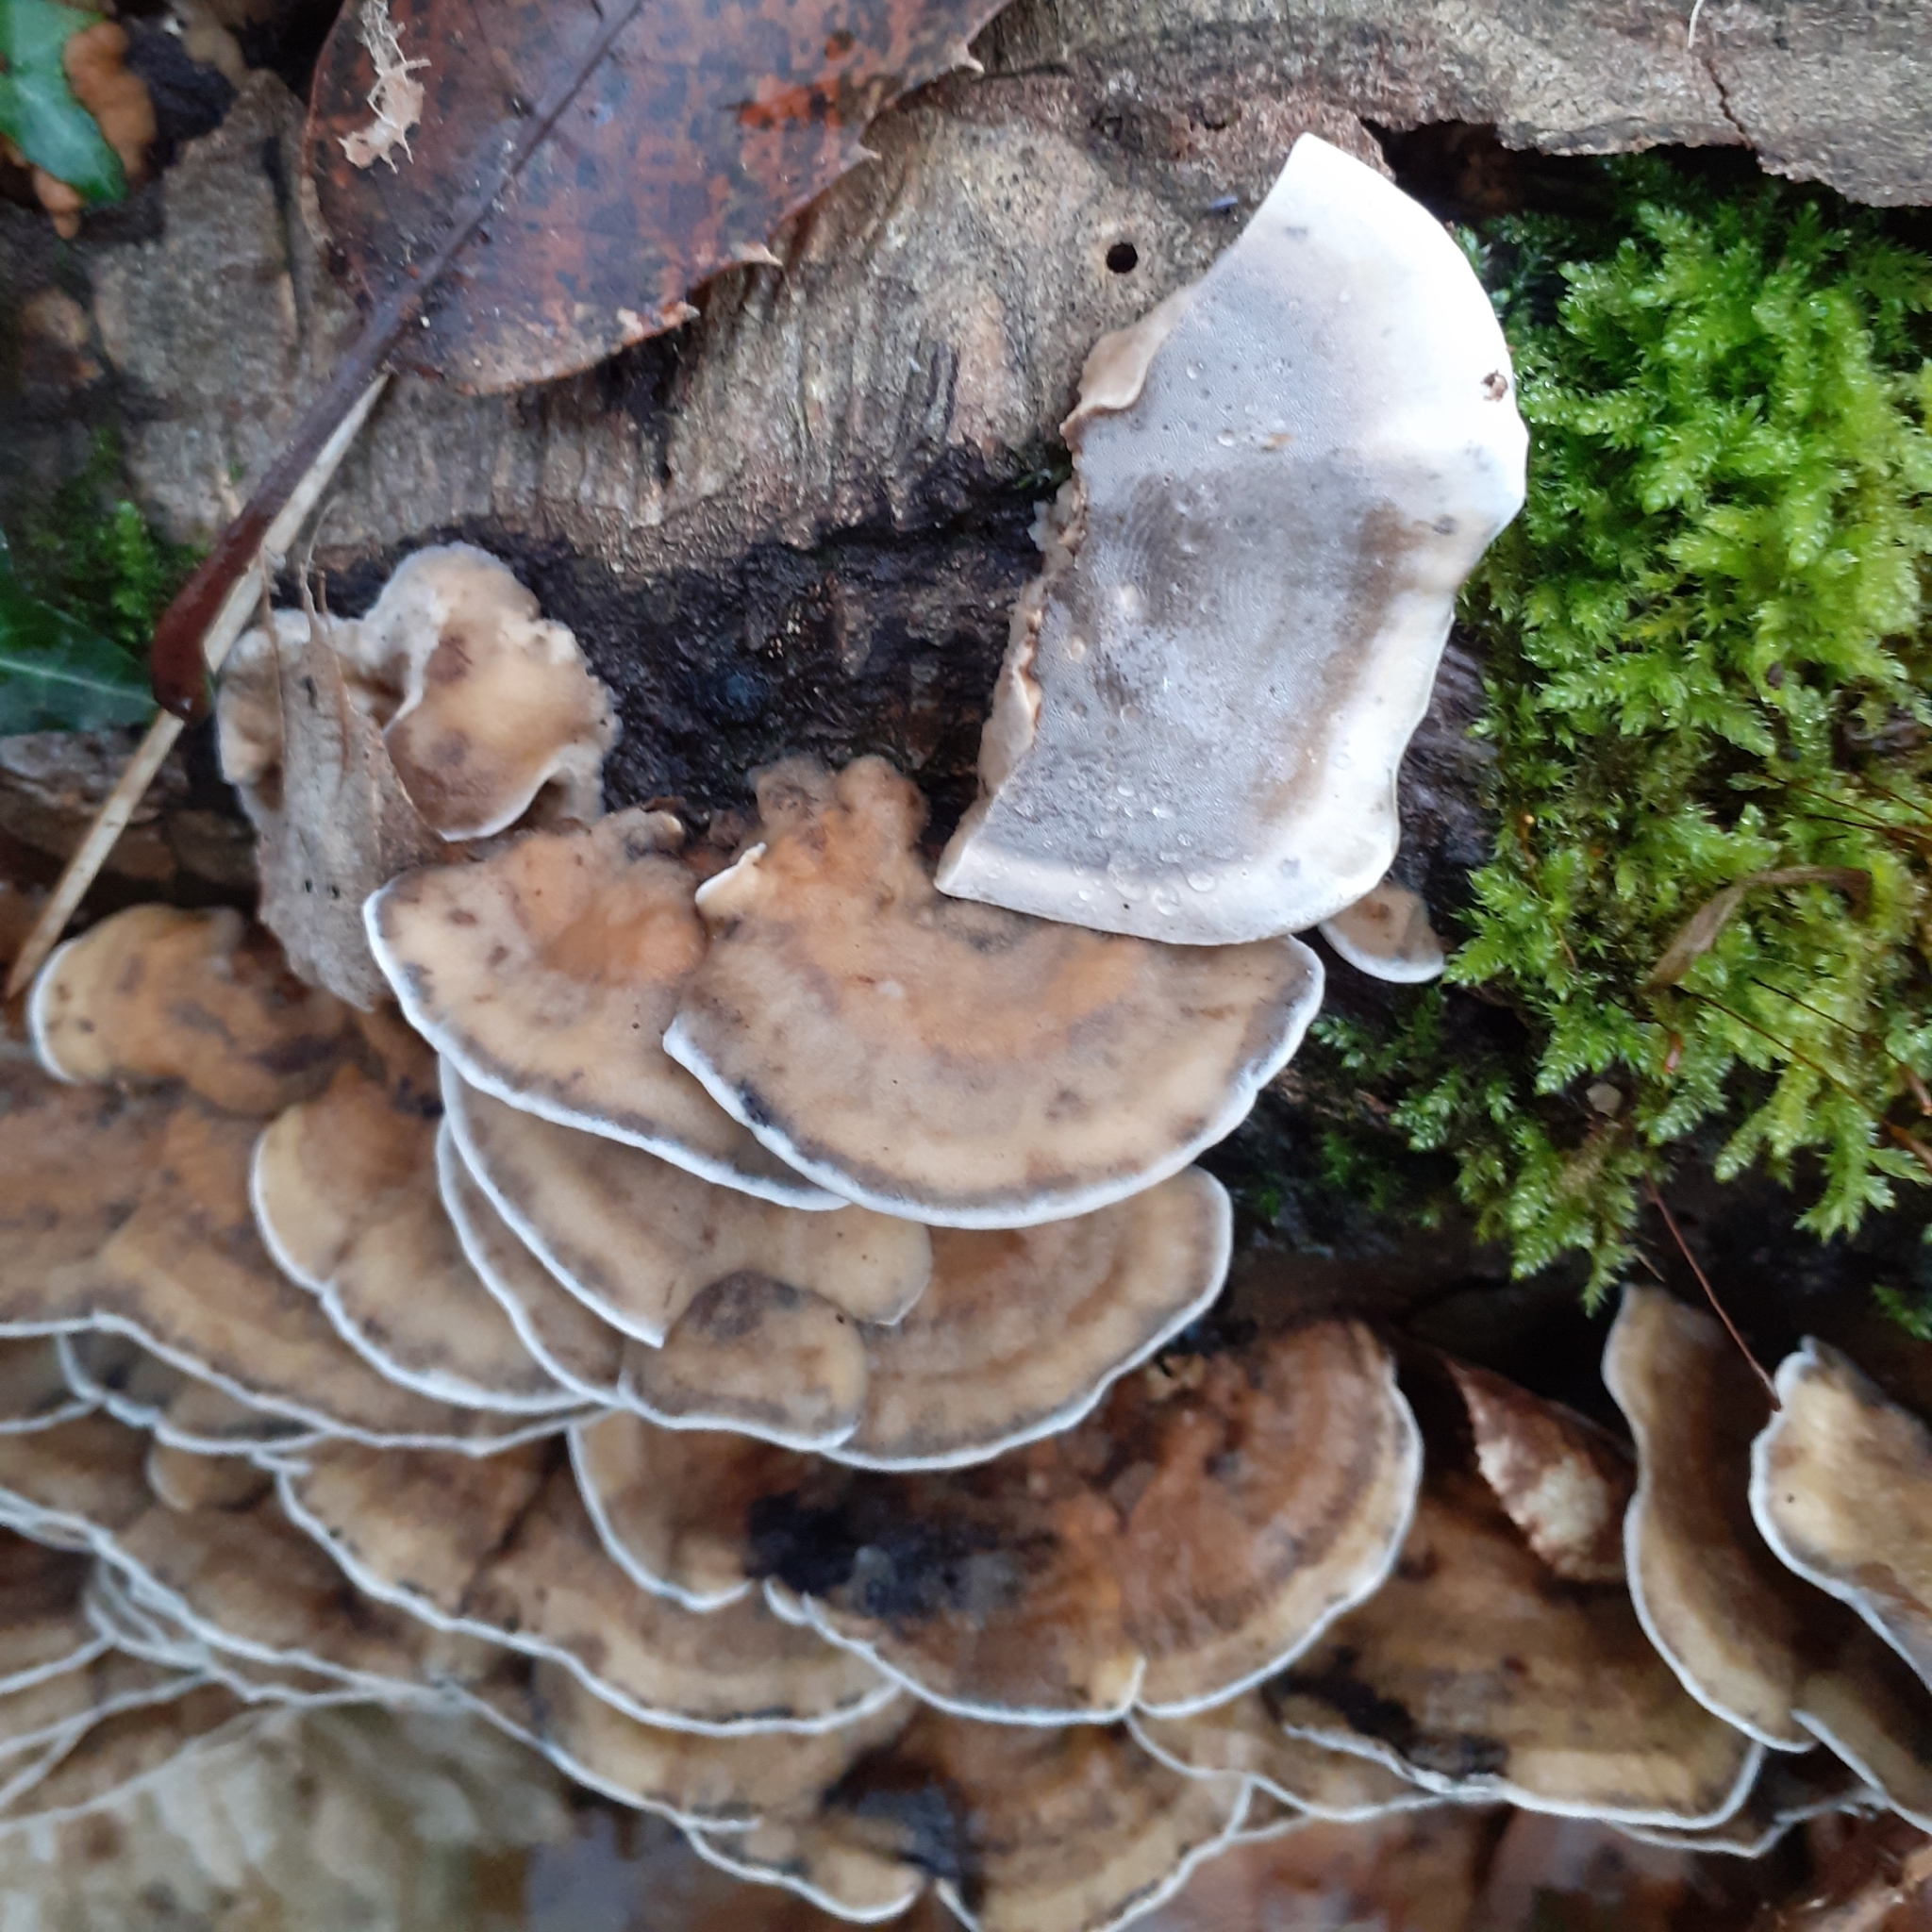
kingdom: Fungi
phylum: Basidiomycota
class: Agaricomycetes
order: Polyporales
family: Phanerochaetaceae
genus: Bjerkandera
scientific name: Bjerkandera adusta
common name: Smoky bracket
